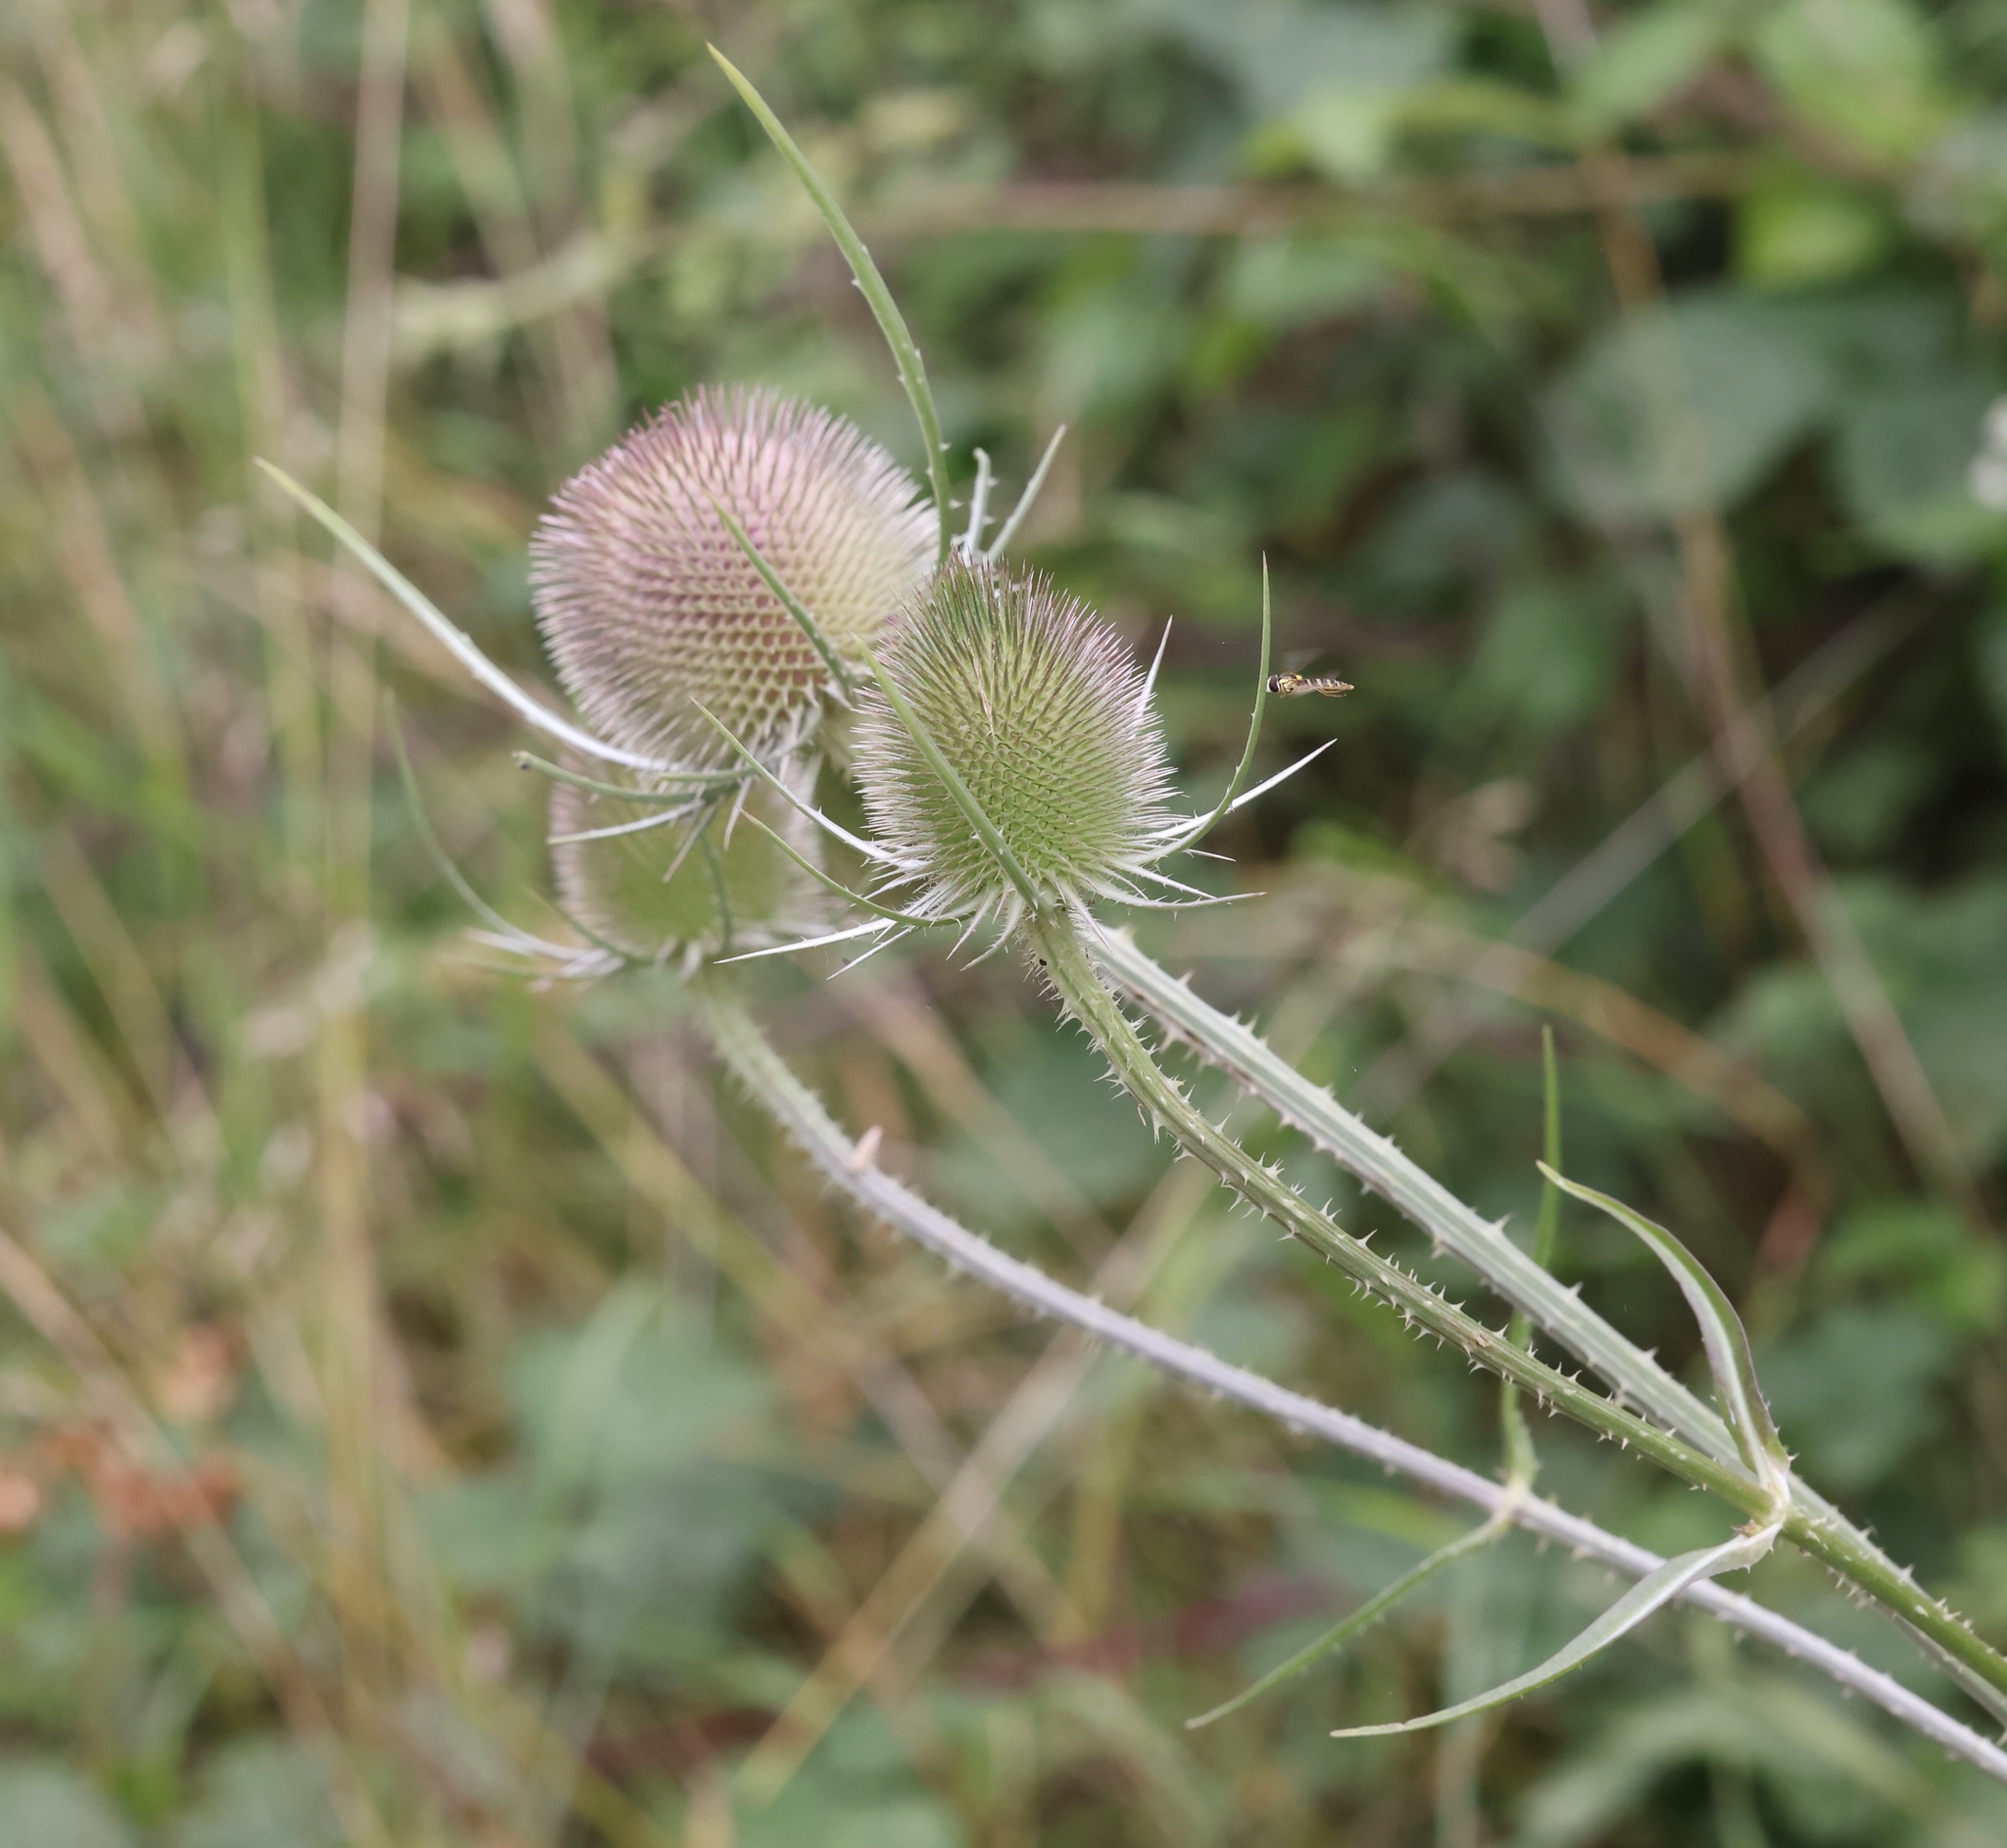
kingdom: Plantae
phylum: Tracheophyta
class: Magnoliopsida
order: Dipsacales
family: Caprifoliaceae
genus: Dipsacus
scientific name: Dipsacus fullonum
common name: Teasel
